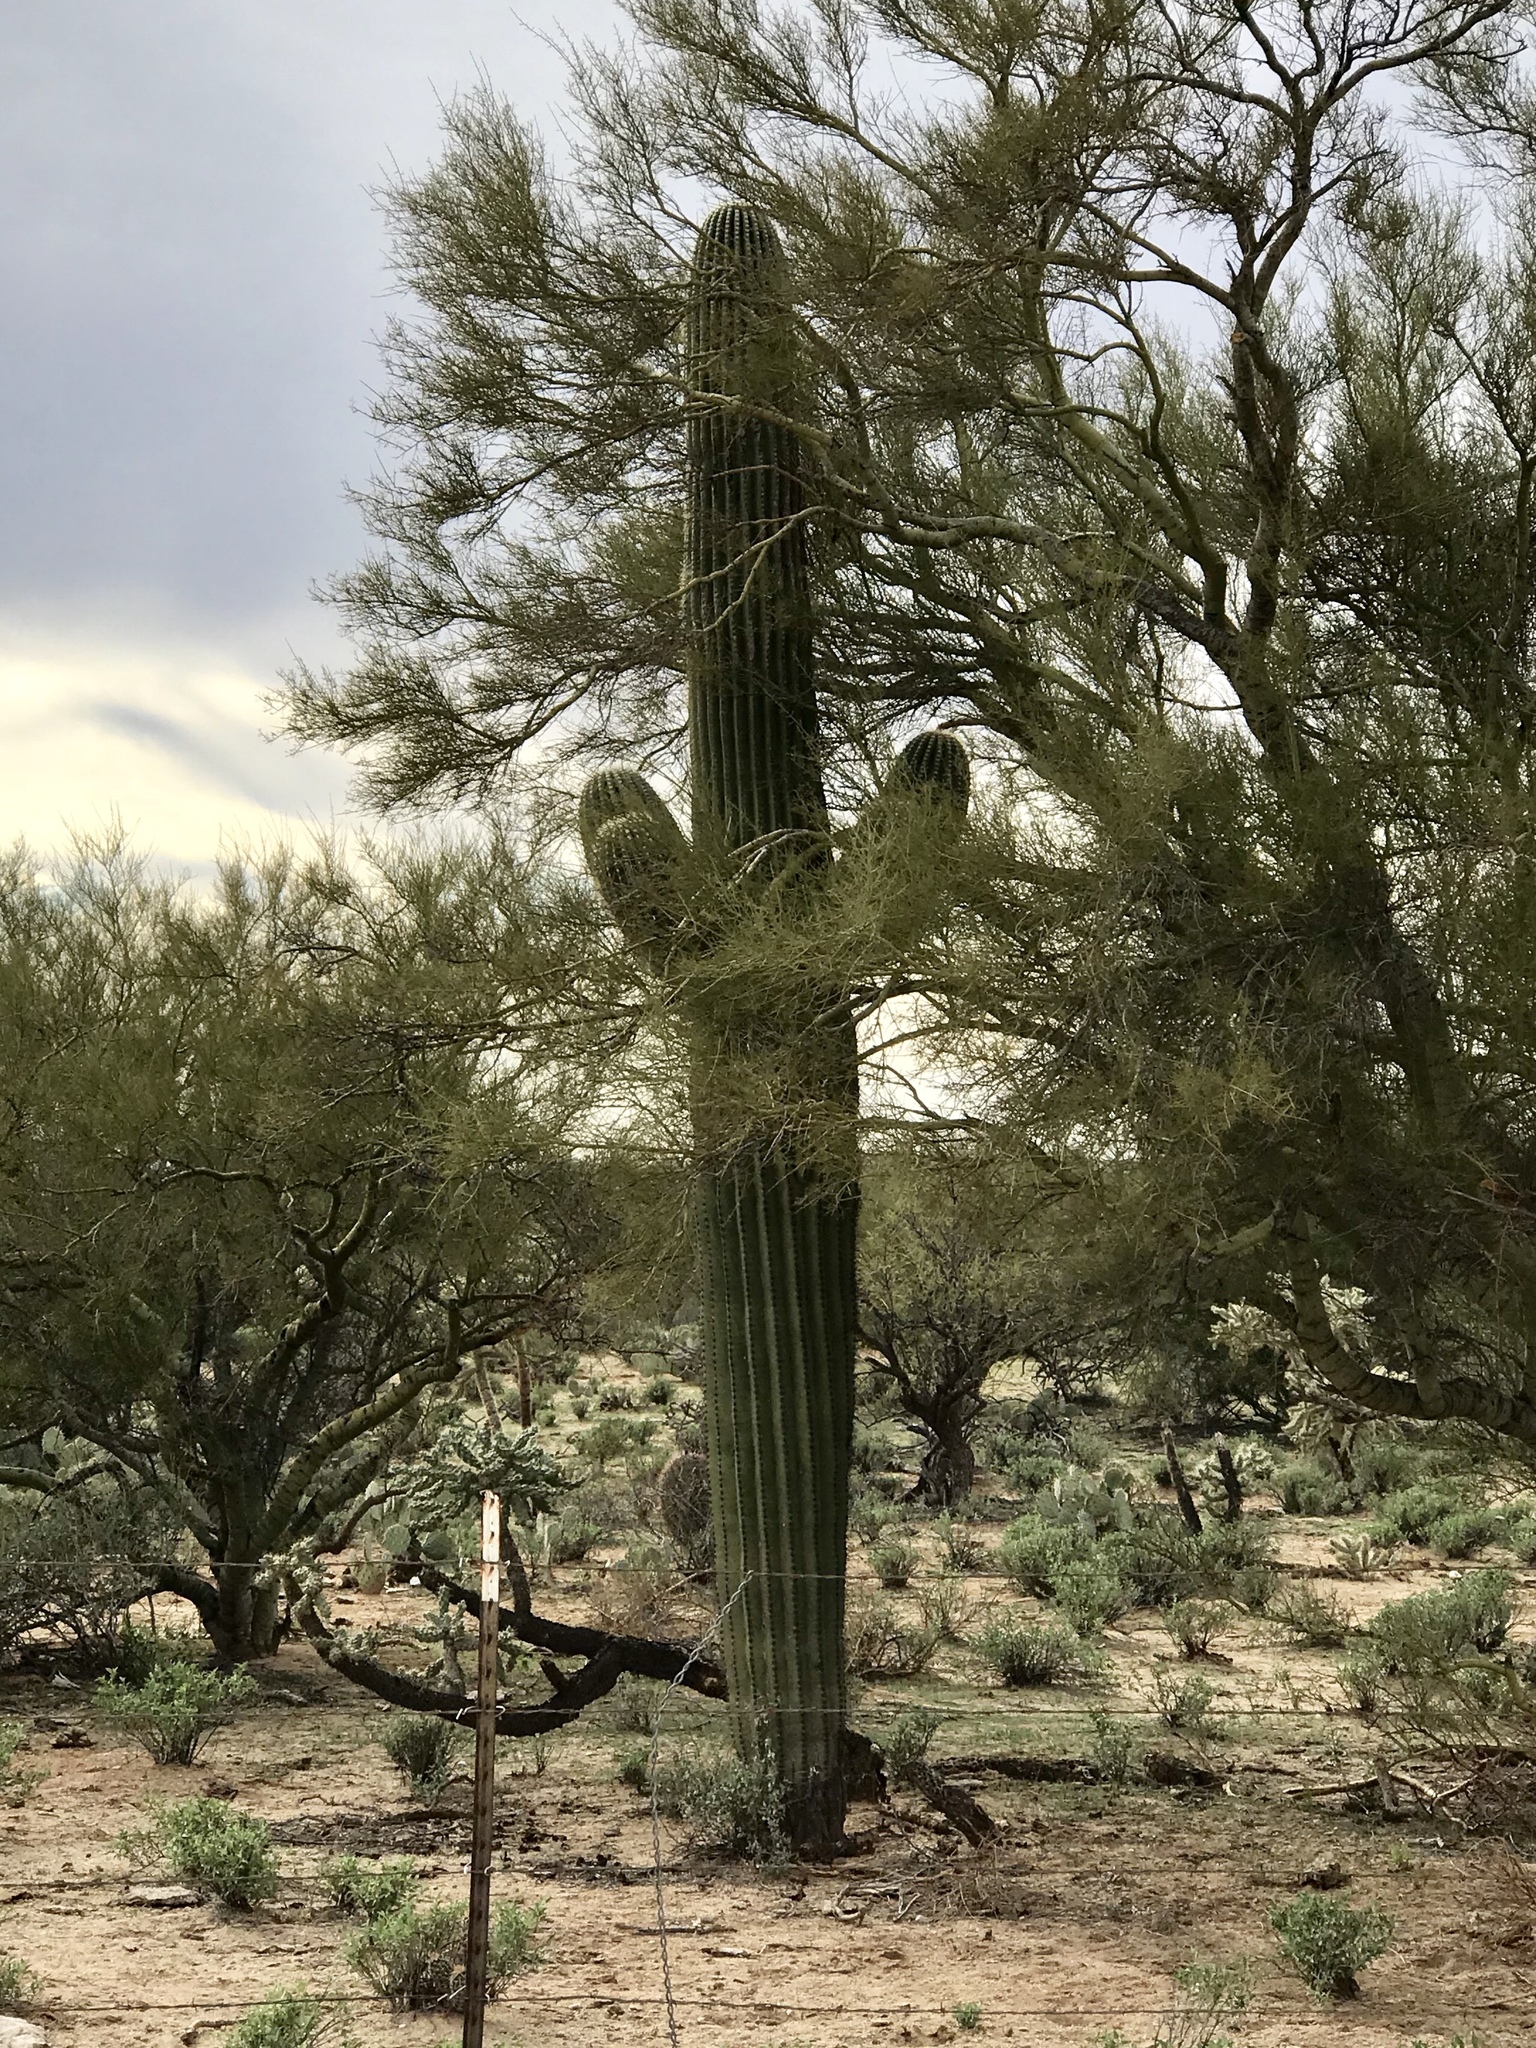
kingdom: Plantae
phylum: Tracheophyta
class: Magnoliopsida
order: Caryophyllales
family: Cactaceae
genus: Carnegiea
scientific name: Carnegiea gigantea
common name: Saguaro
